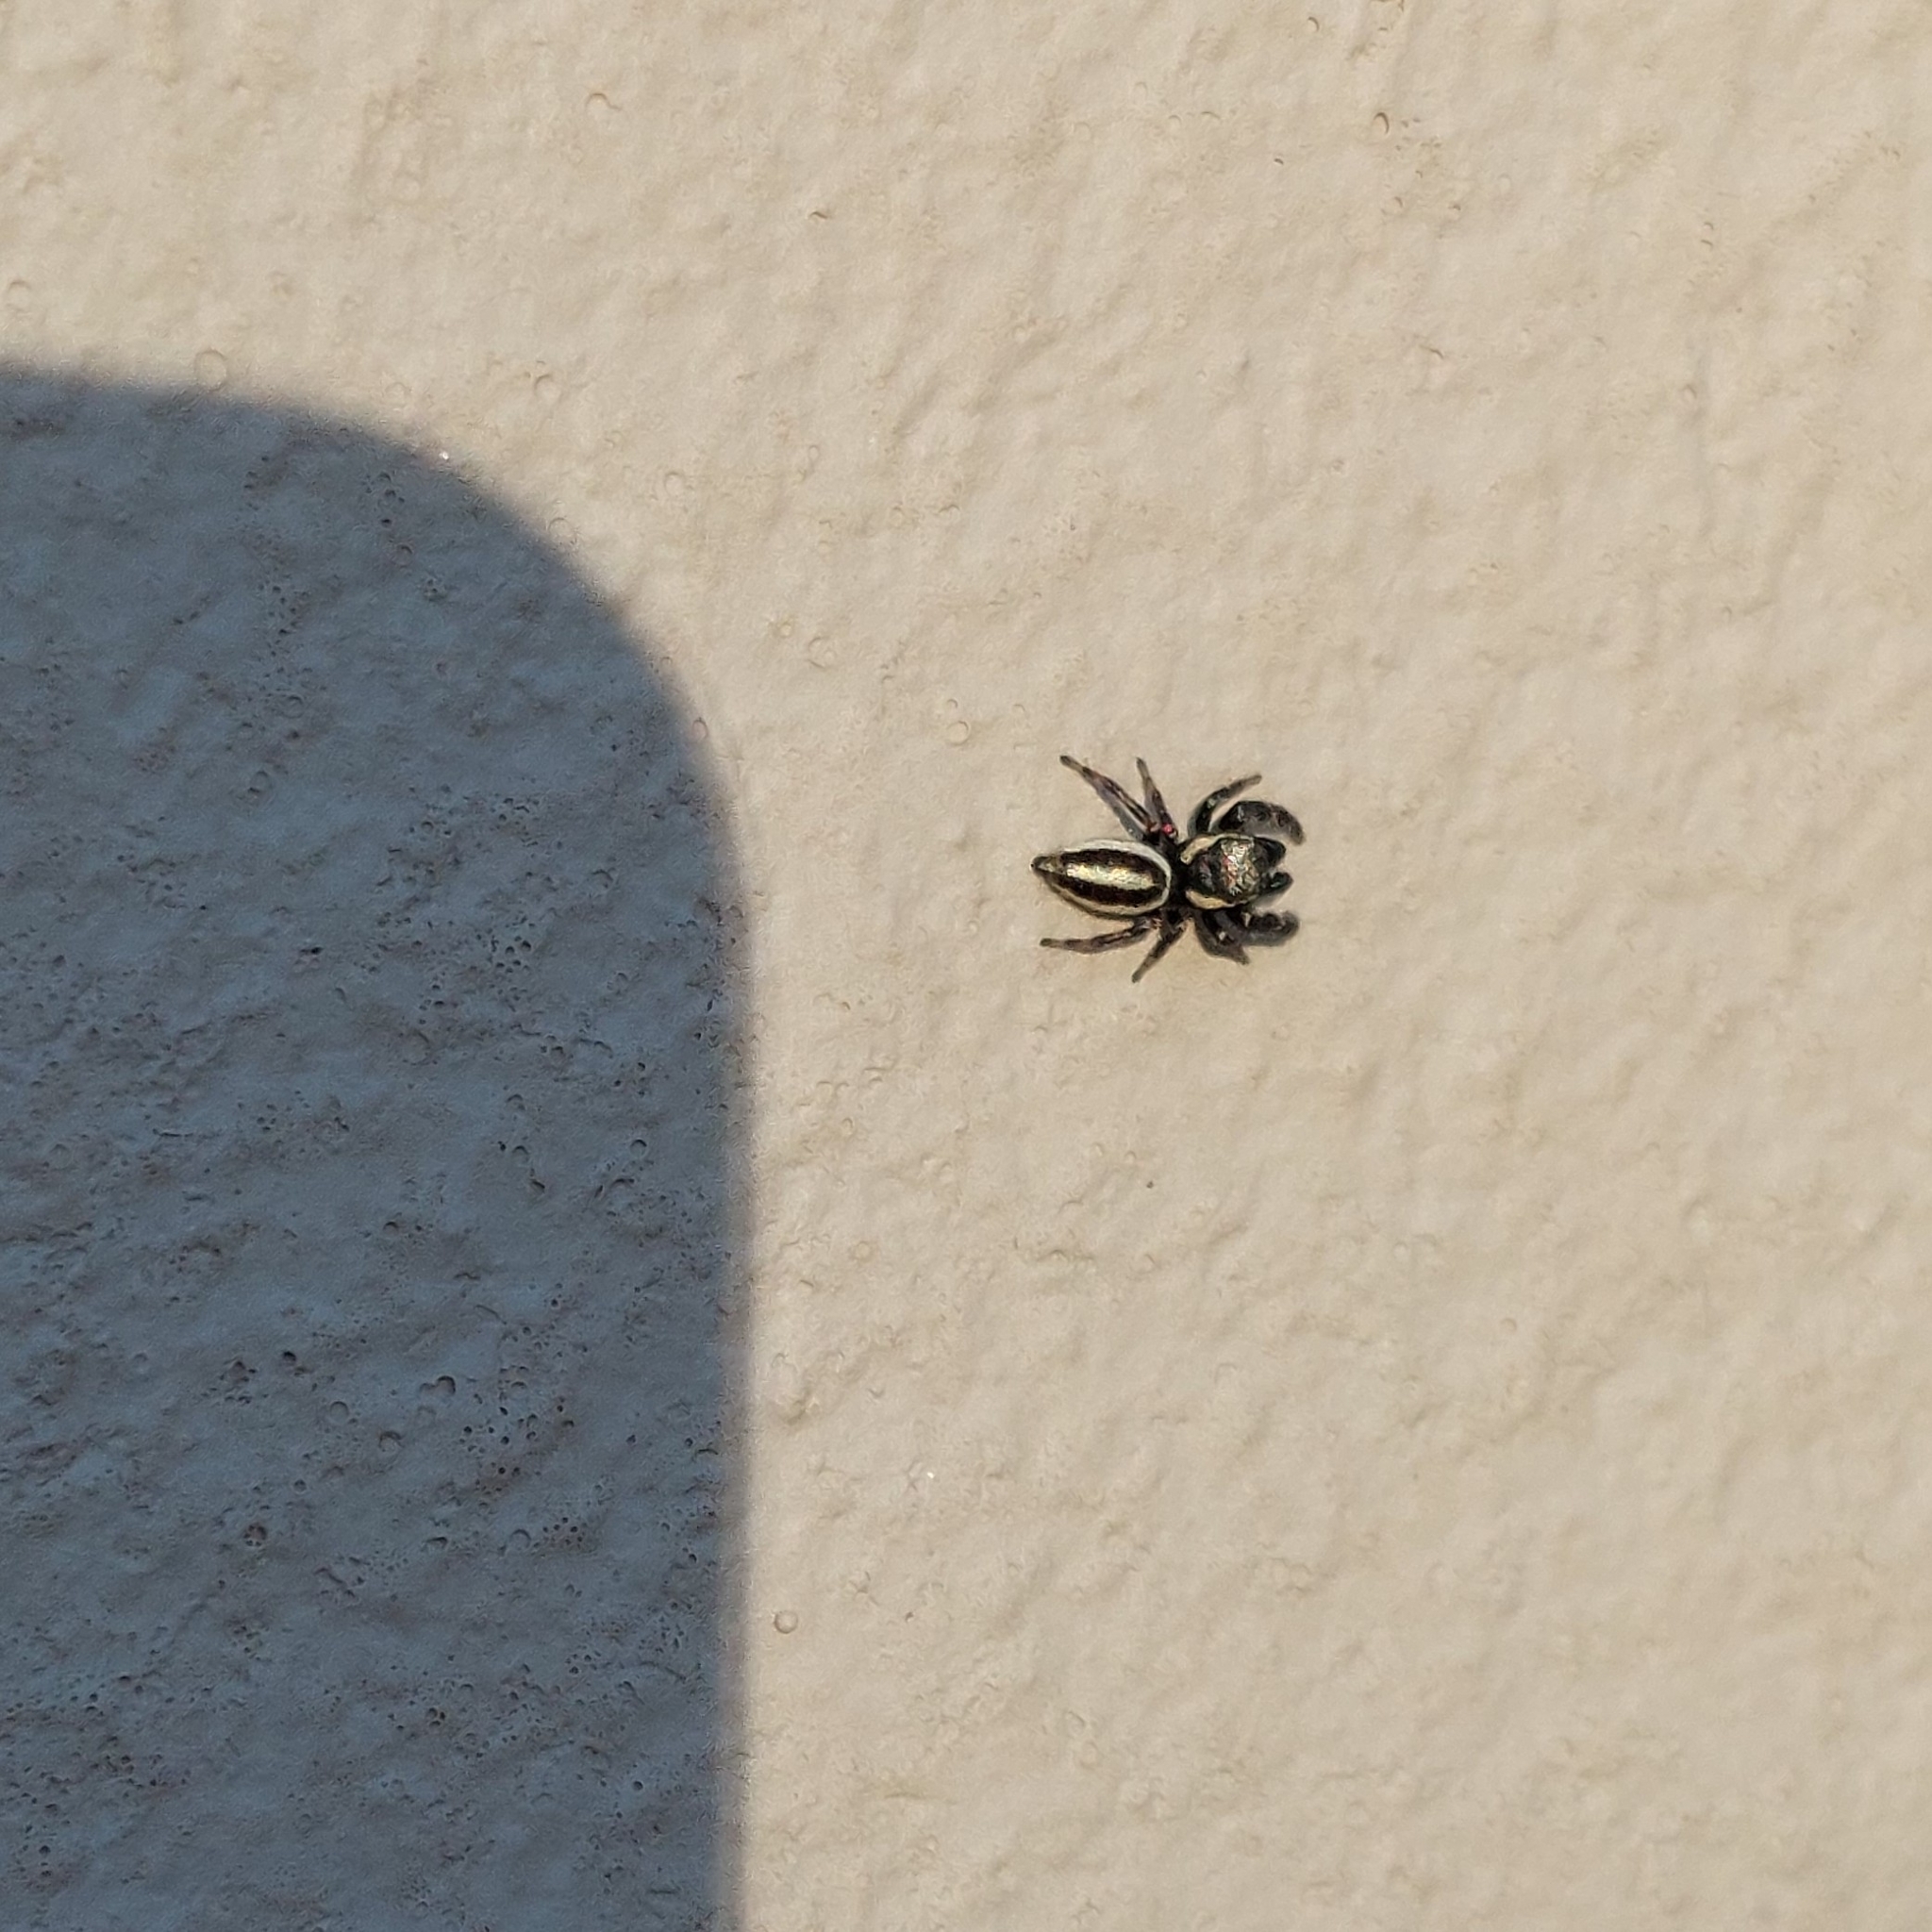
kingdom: Animalia
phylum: Arthropoda
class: Arachnida
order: Araneae
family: Salticidae
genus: Dendryphantes
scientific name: Dendryphantes mordax
